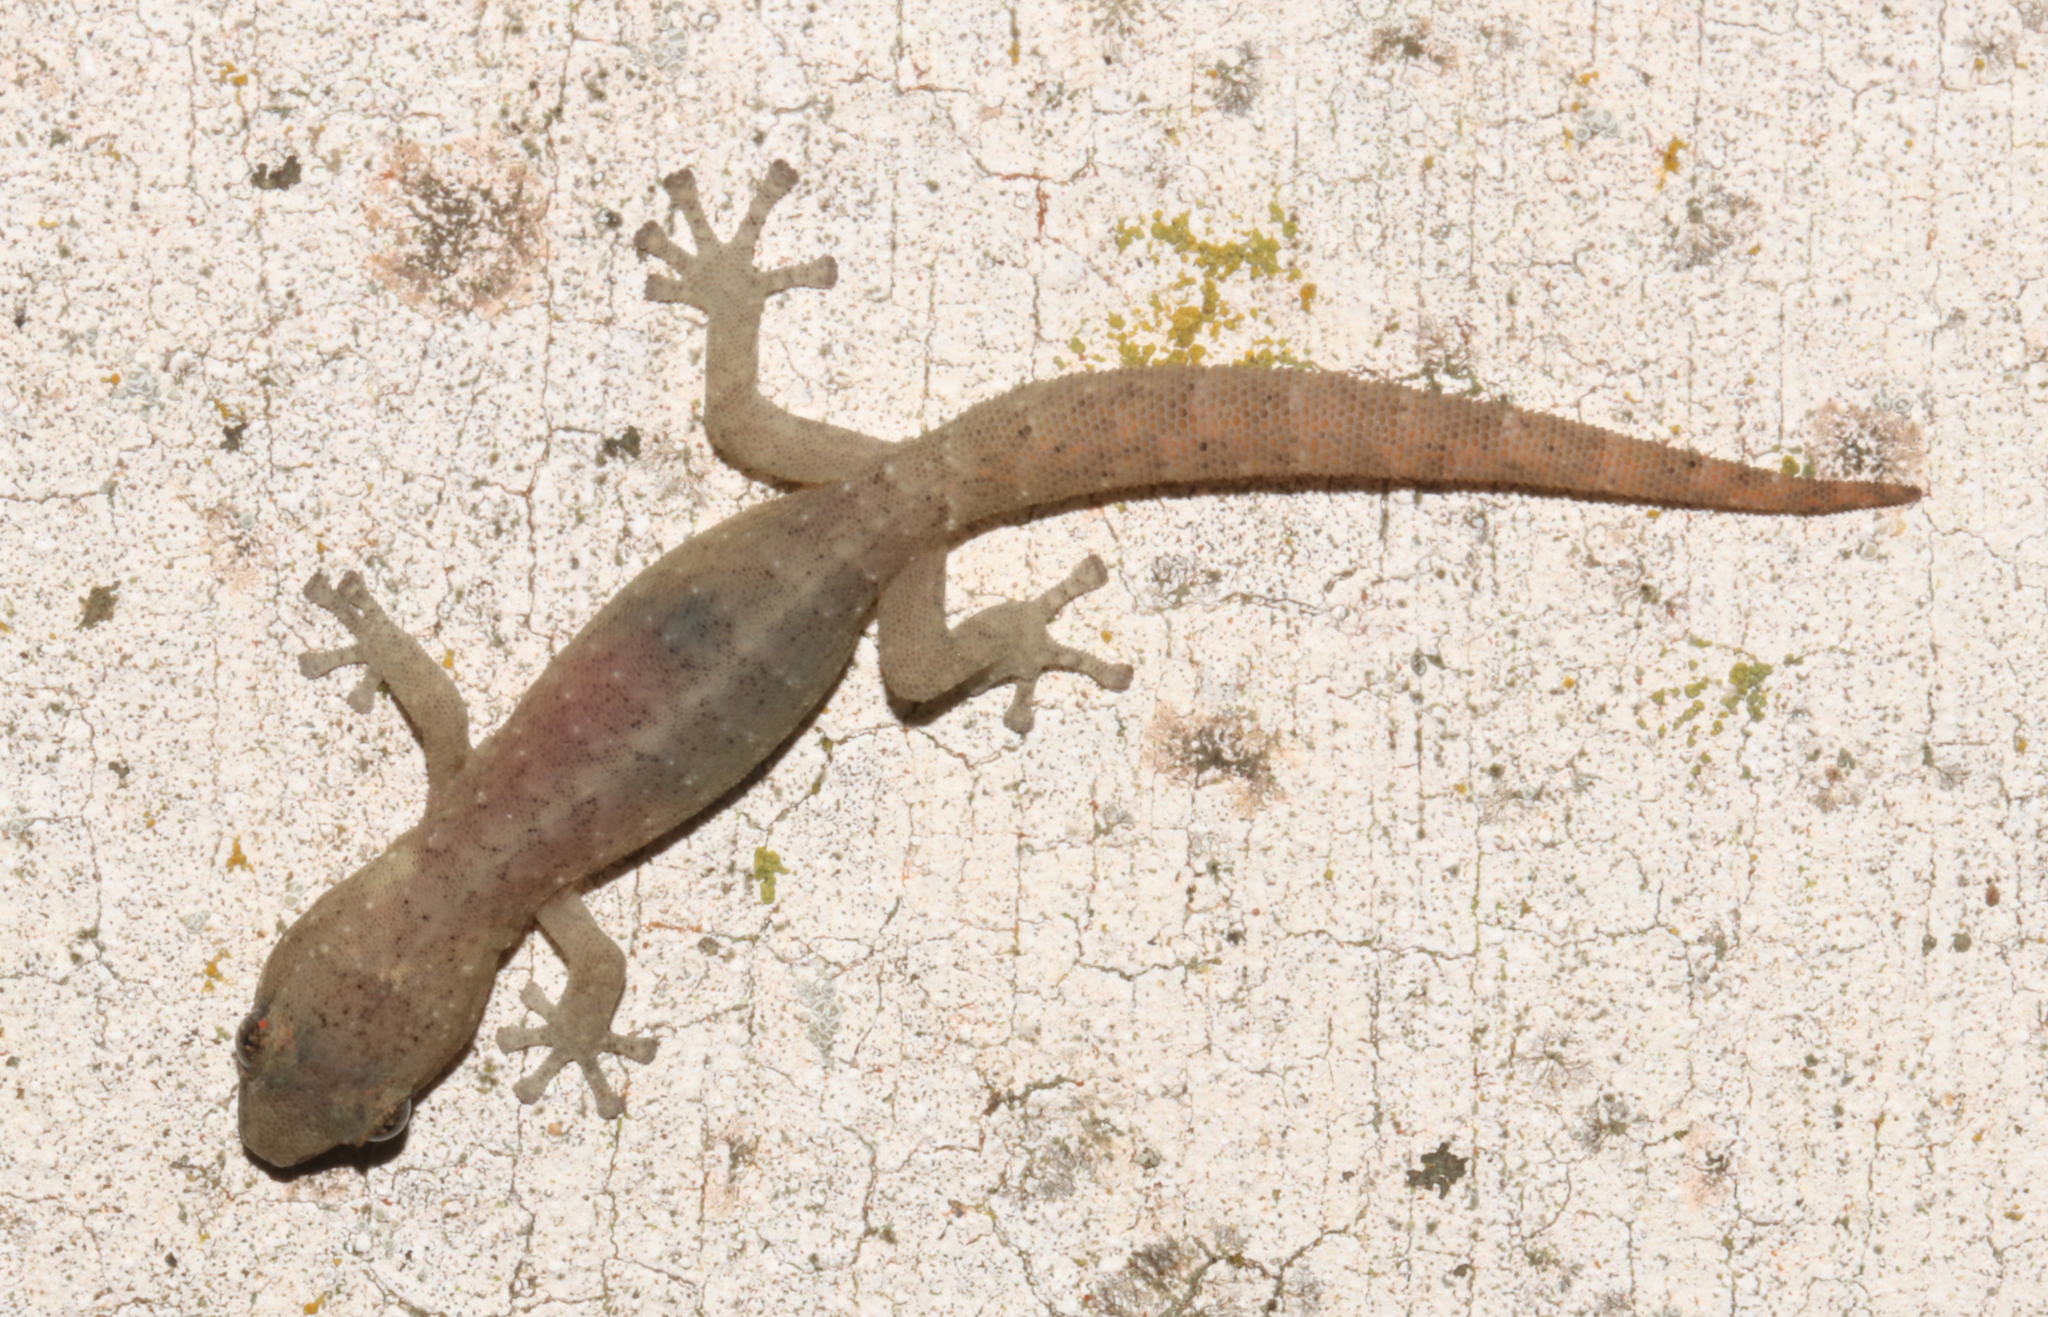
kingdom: Animalia
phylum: Chordata
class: Squamata
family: Gekkonidae
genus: Afrogecko
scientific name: Afrogecko porphyreus
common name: Marbled leaf-toed gecko
